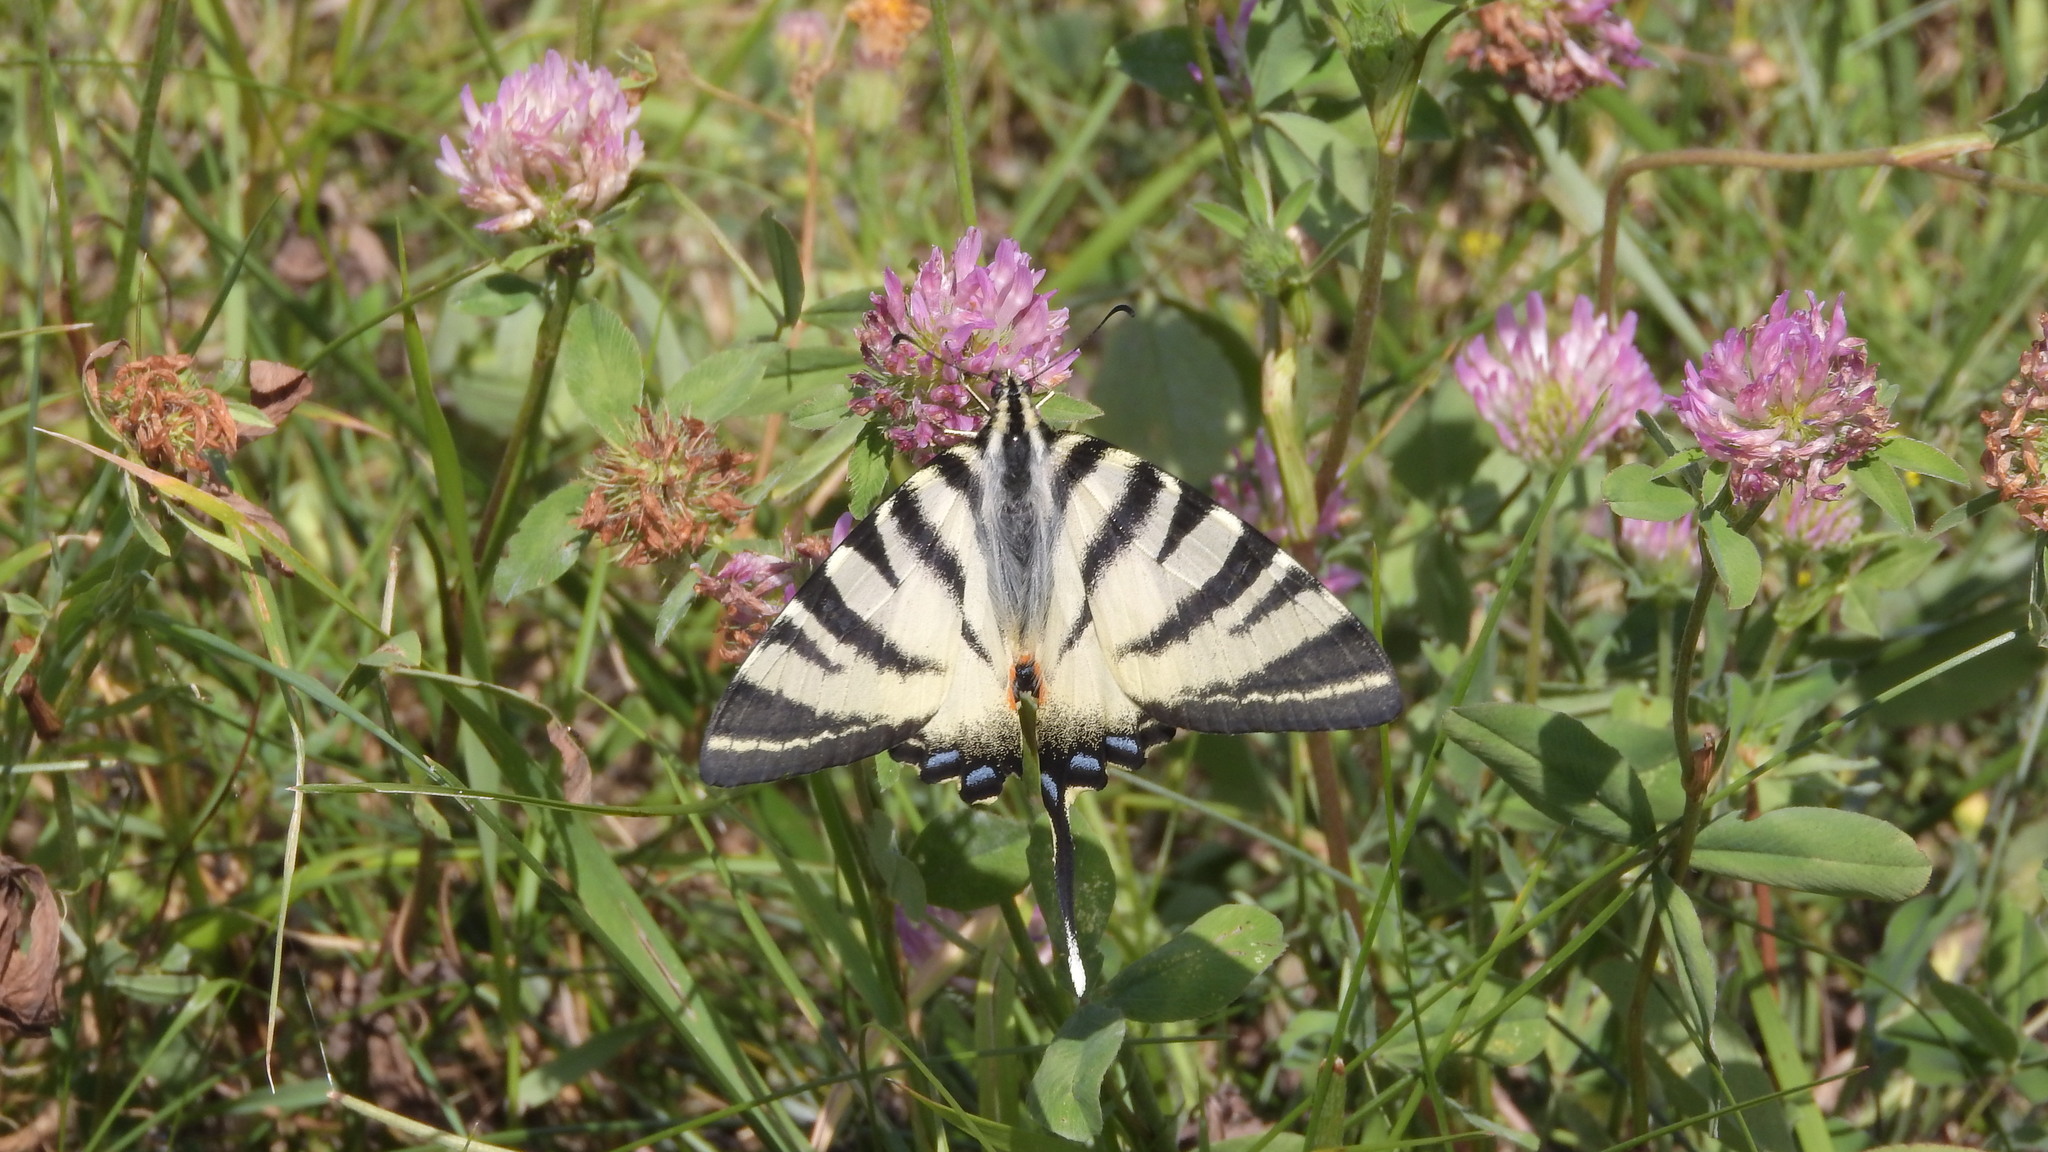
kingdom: Animalia
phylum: Arthropoda
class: Insecta
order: Lepidoptera
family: Papilionidae
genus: Iphiclides
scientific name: Iphiclides podalirius
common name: Scarce swallowtail
